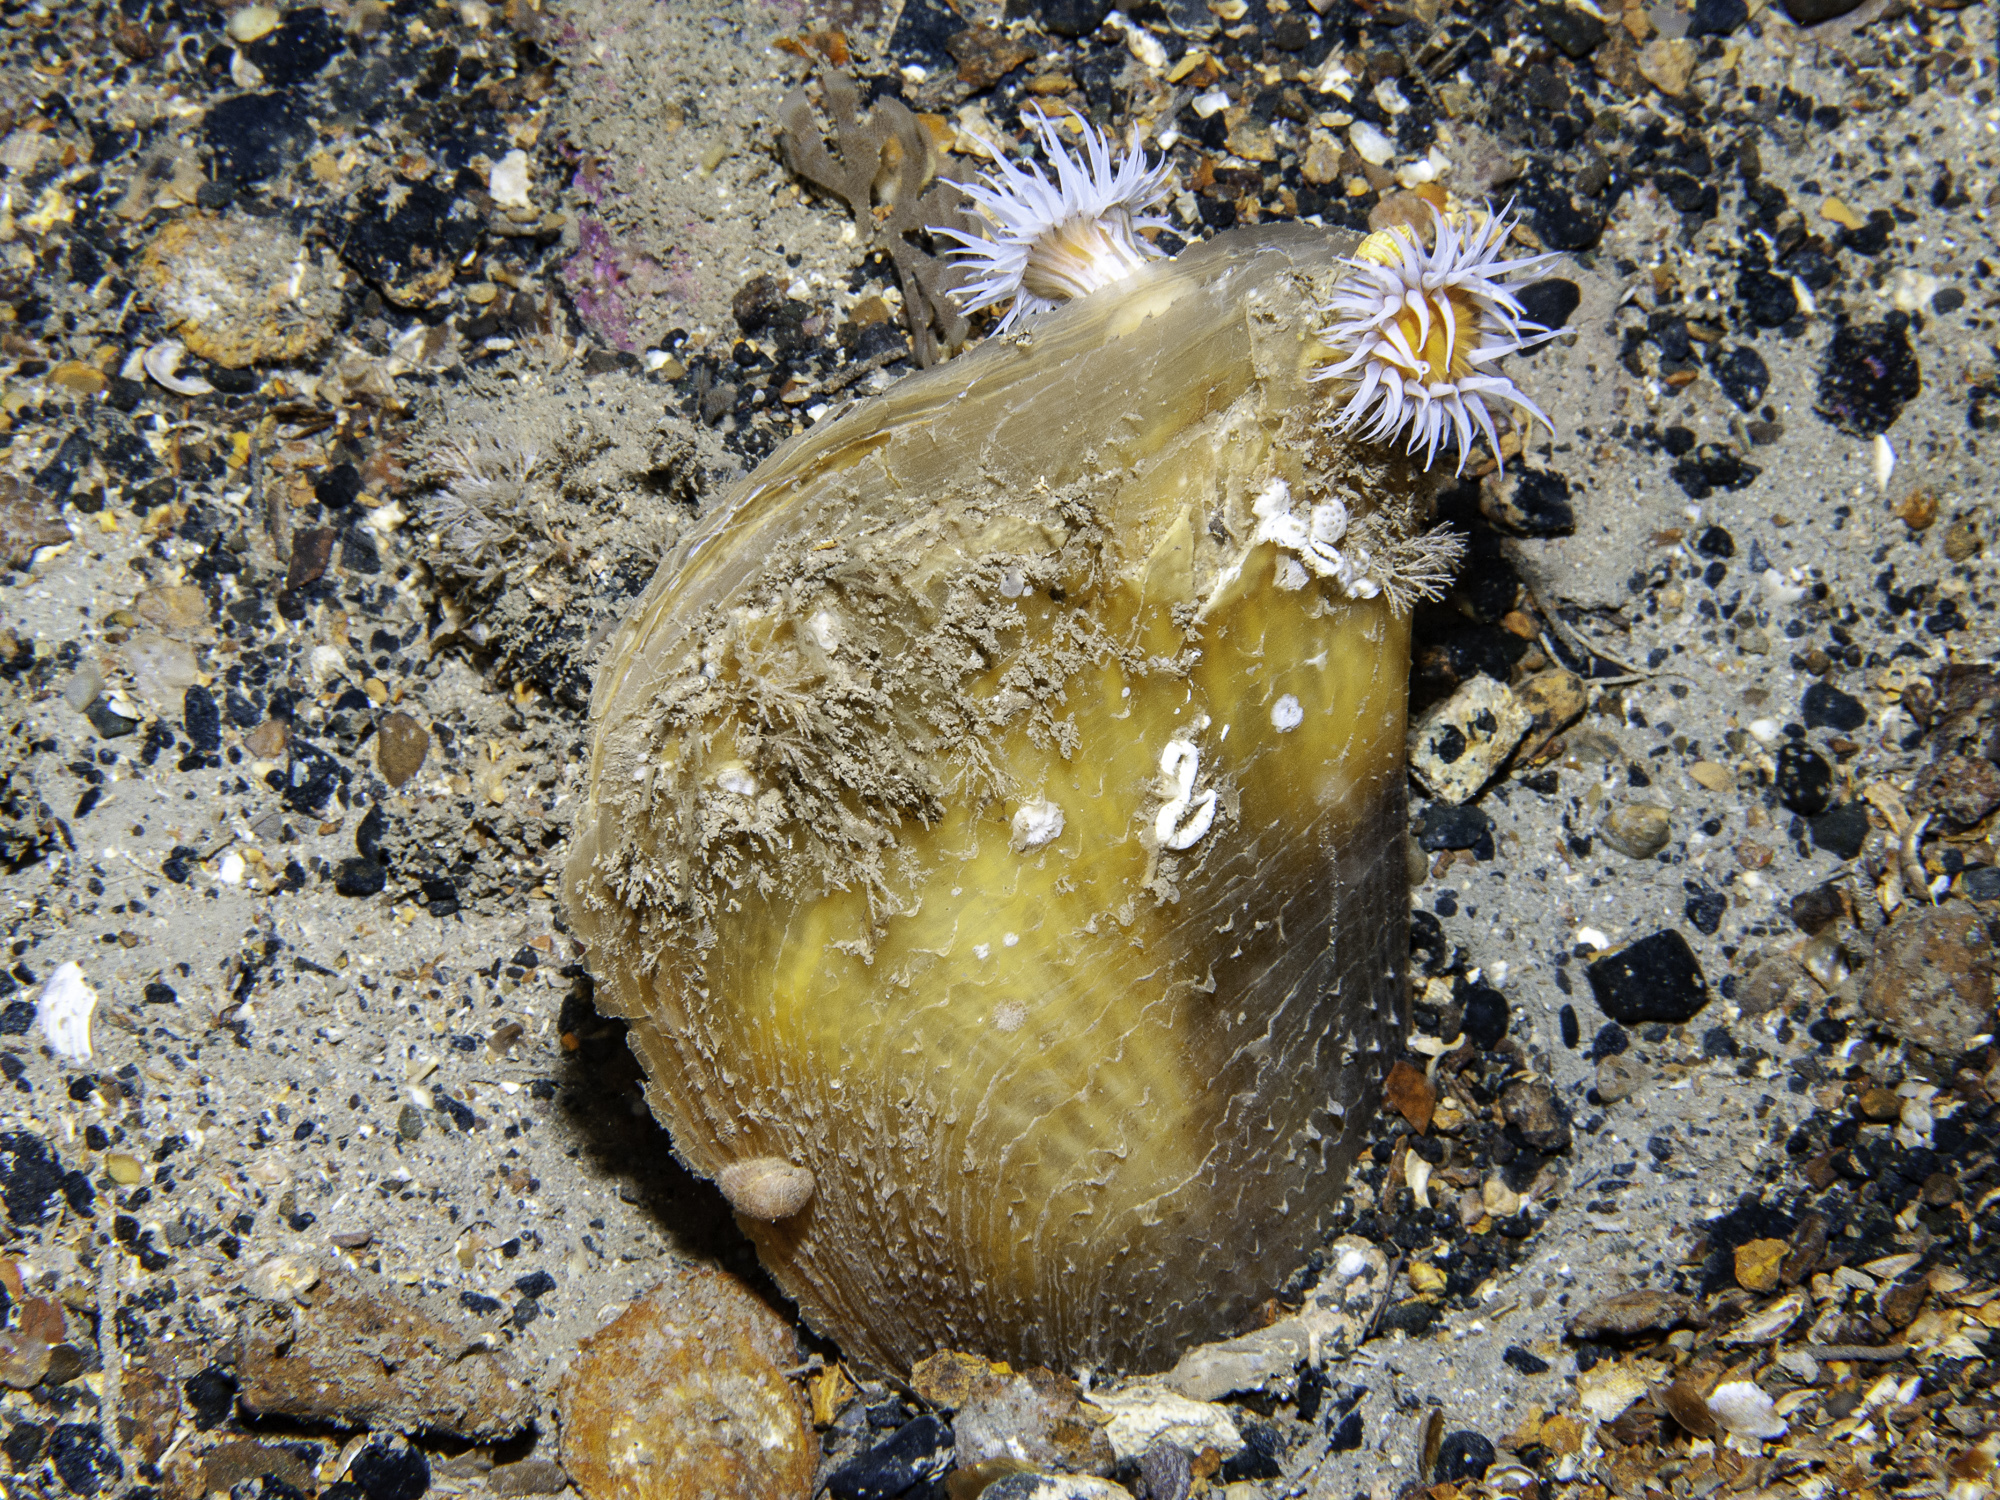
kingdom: Animalia
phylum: Mollusca
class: Bivalvia
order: Ostreida
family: Pinnidae
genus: Atrina
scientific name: Atrina fragilis
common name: Fan mussel
